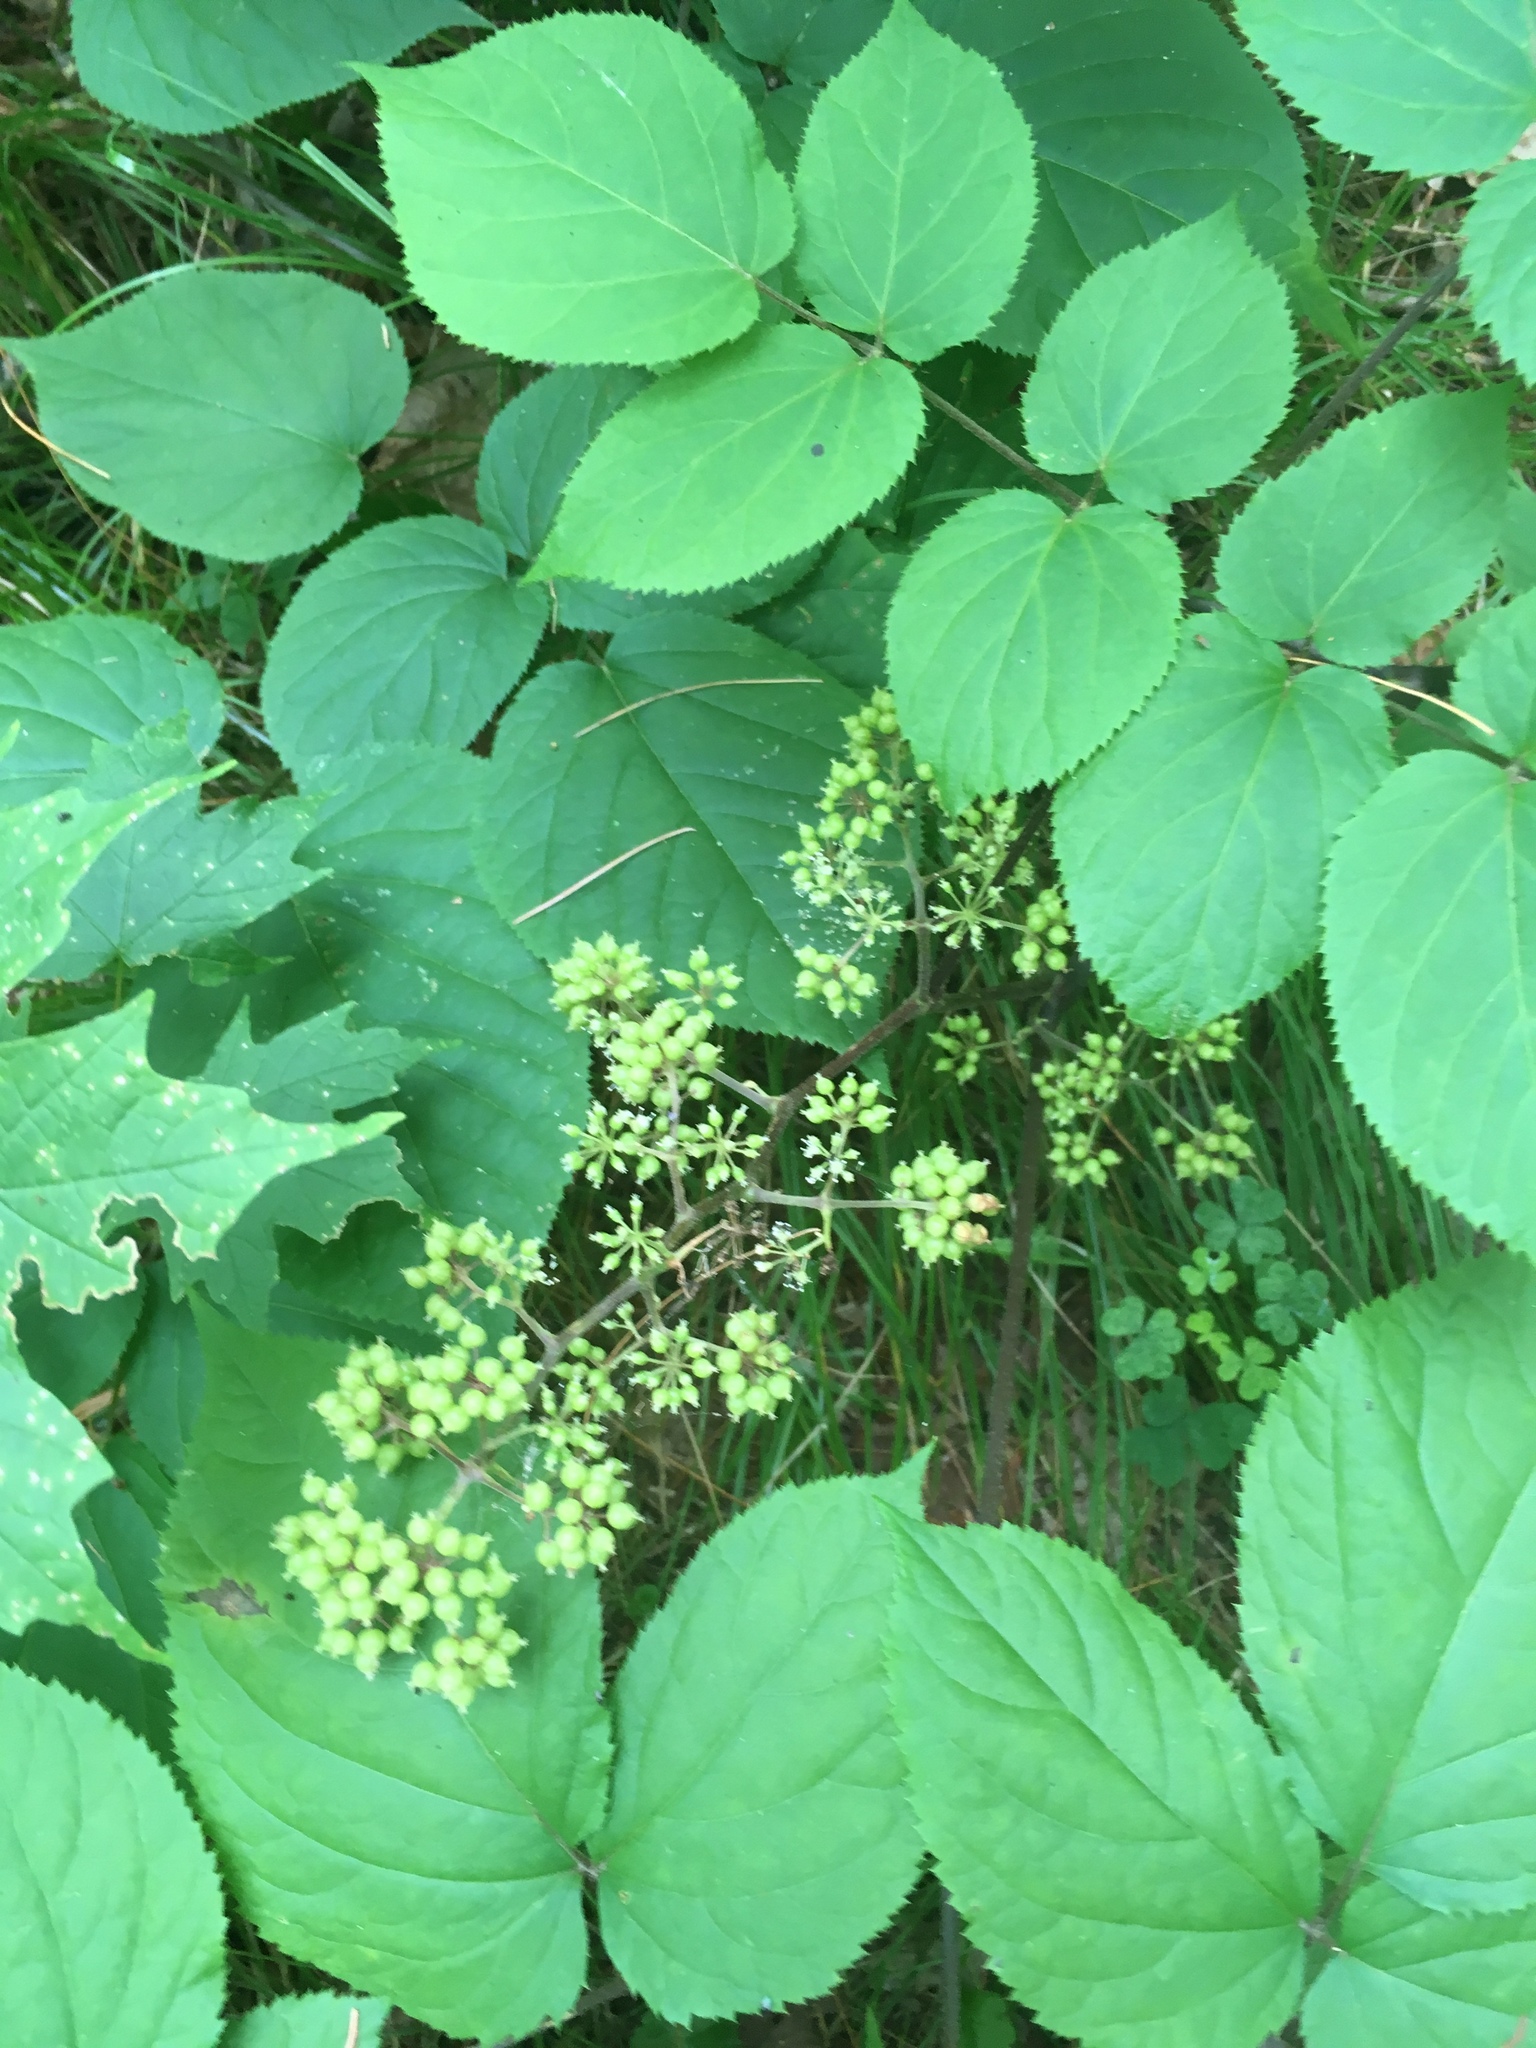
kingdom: Plantae
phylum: Tracheophyta
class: Magnoliopsida
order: Apiales
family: Araliaceae
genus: Aralia
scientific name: Aralia racemosa
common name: American-spikenard
